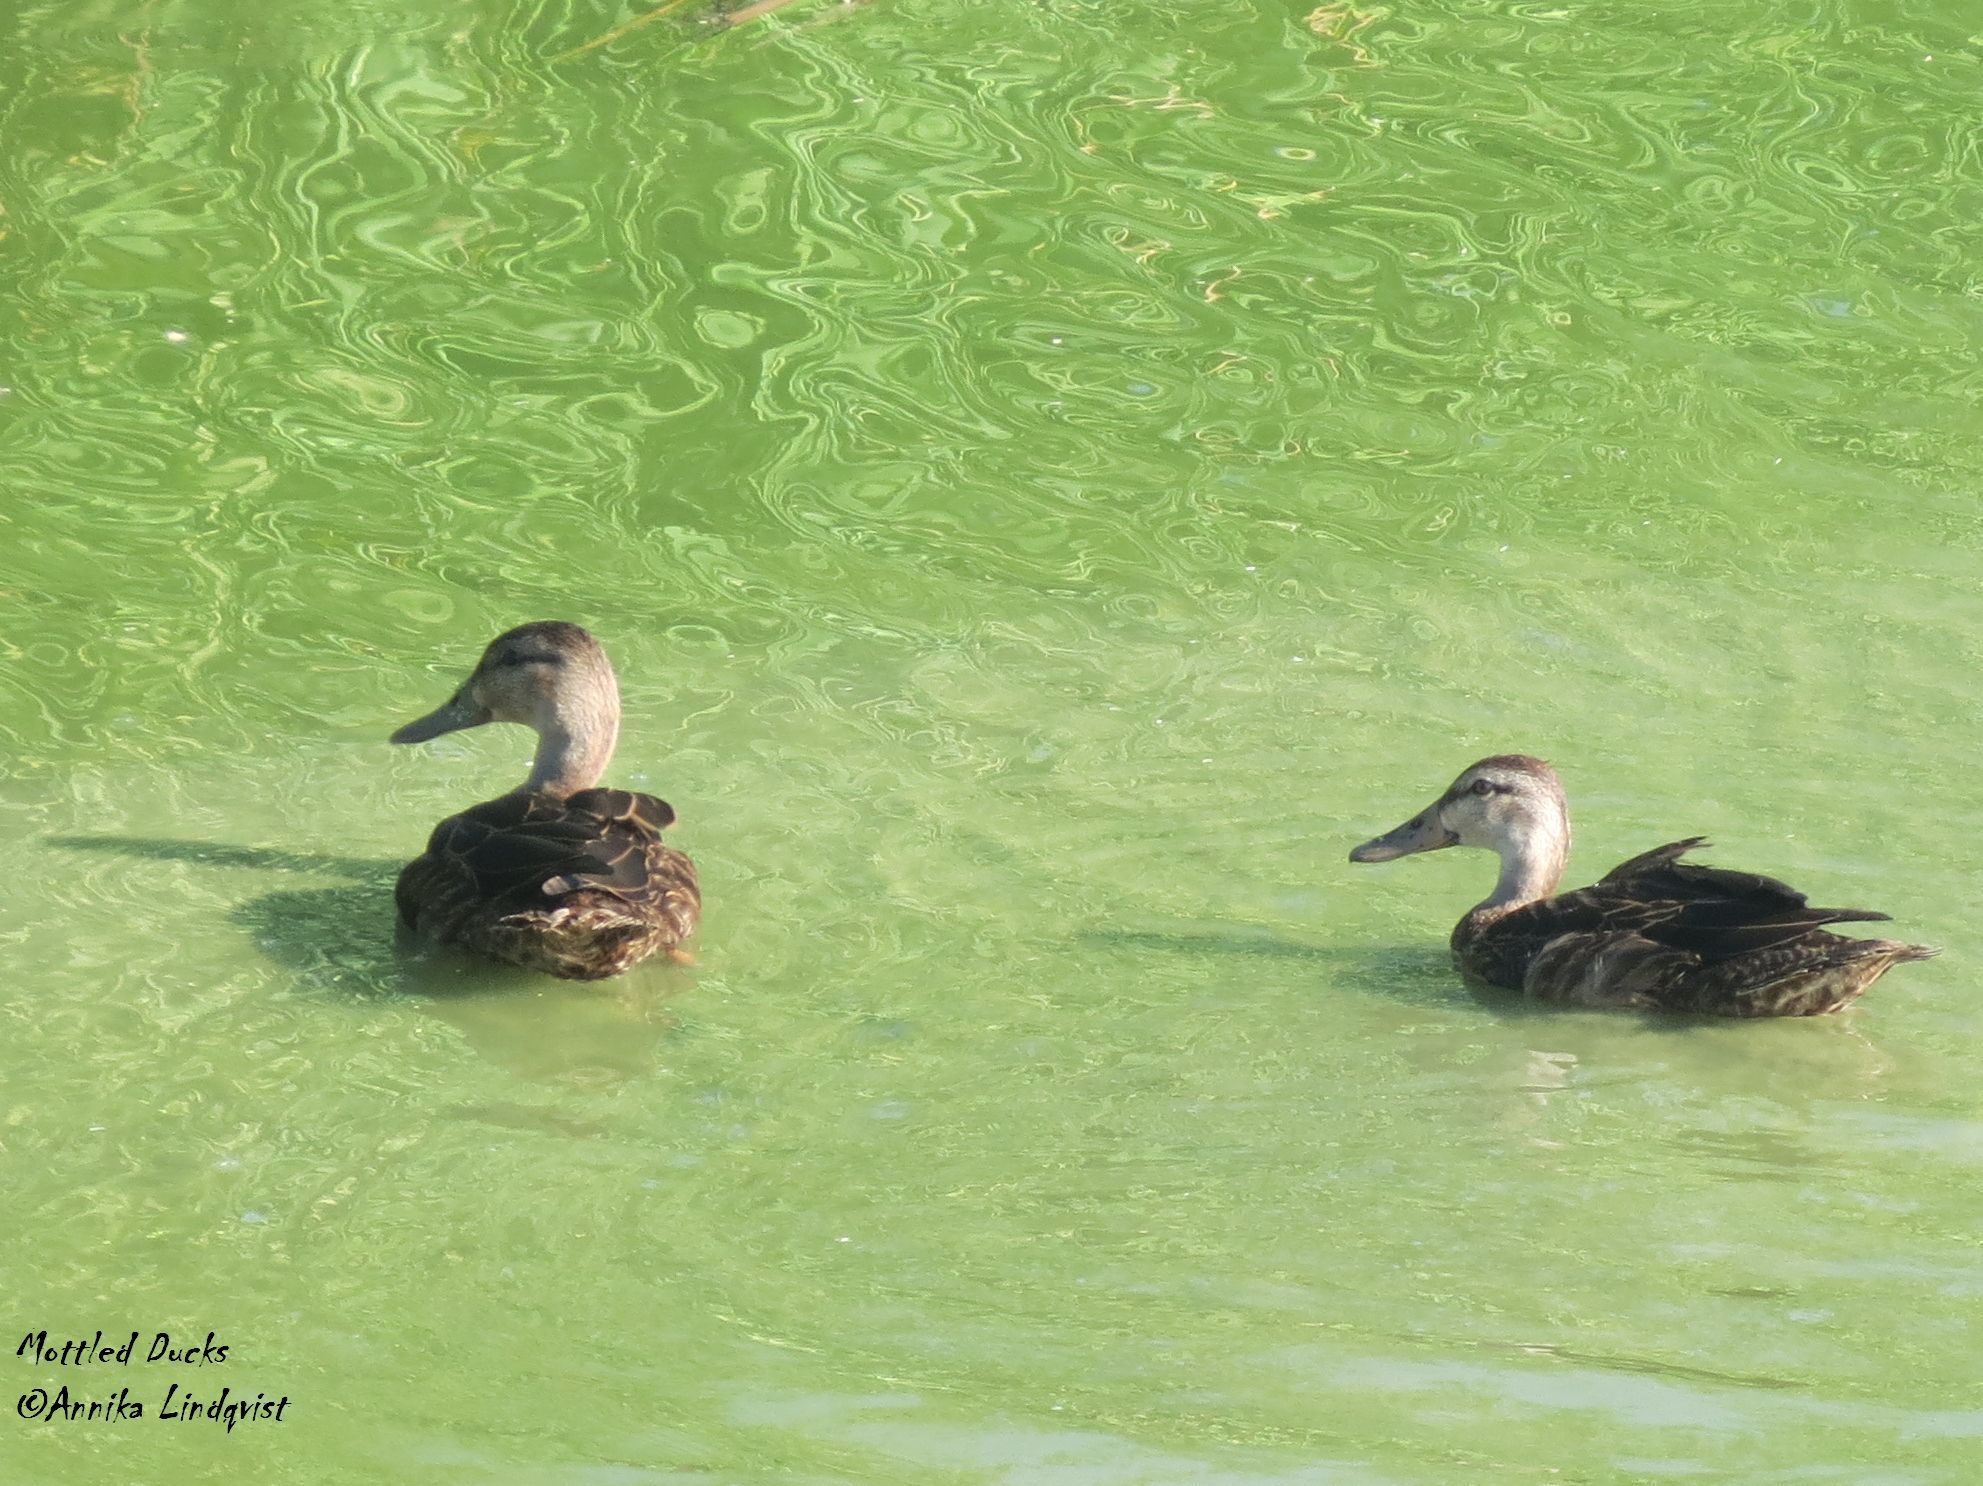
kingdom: Animalia
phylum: Chordata
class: Aves
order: Anseriformes
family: Anatidae
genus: Anas
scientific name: Anas fulvigula
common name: Mottled duck
